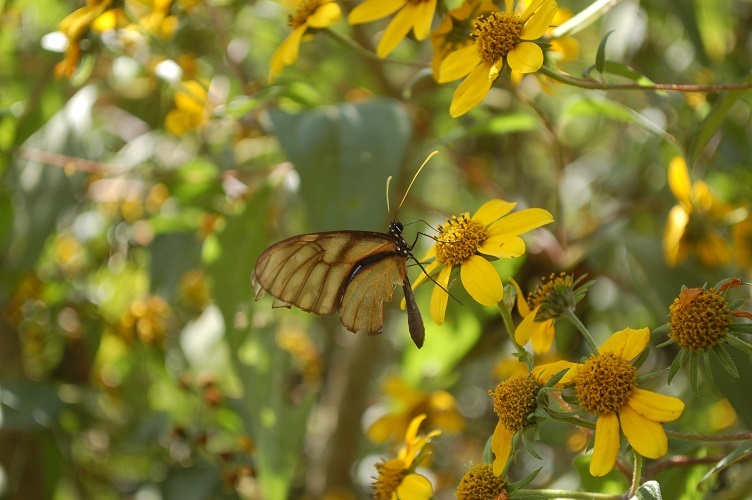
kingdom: Animalia
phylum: Arthropoda
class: Insecta
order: Lepidoptera
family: Nymphalidae
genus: Dircenna
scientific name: Dircenna
